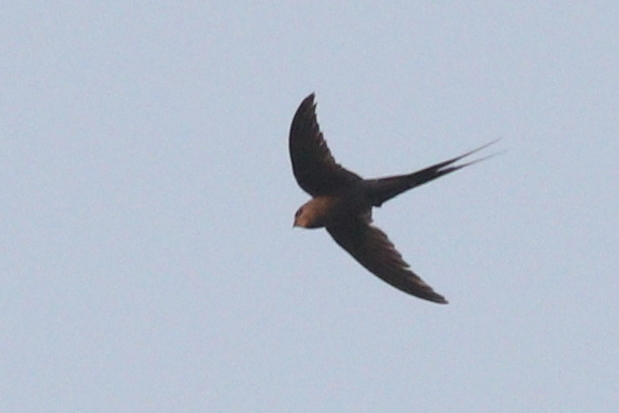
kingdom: Animalia
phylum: Chordata
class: Aves
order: Apodiformes
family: Apodidae
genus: Cypsiurus
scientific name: Cypsiurus parvus
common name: African palm swift
